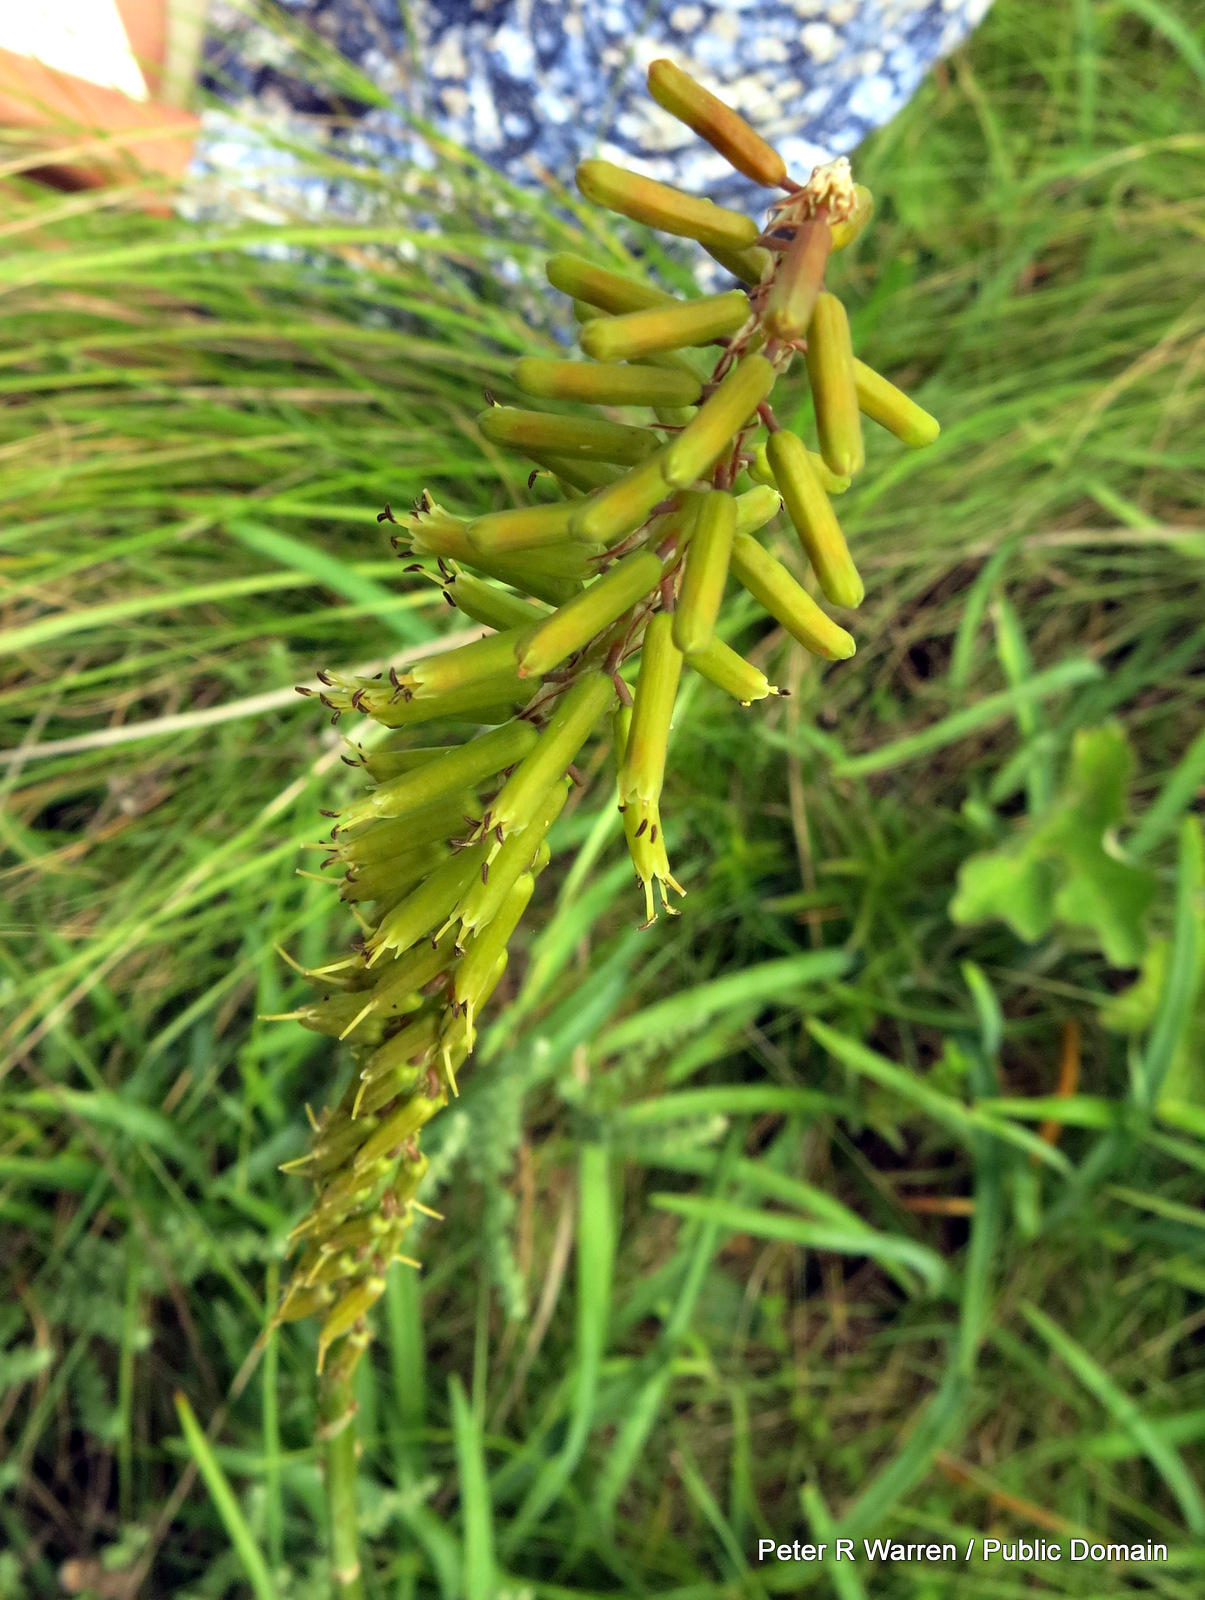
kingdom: Plantae
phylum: Tracheophyta
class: Liliopsida
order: Asparagales
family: Asphodelaceae
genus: Kniphofia
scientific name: Kniphofia parviflora
